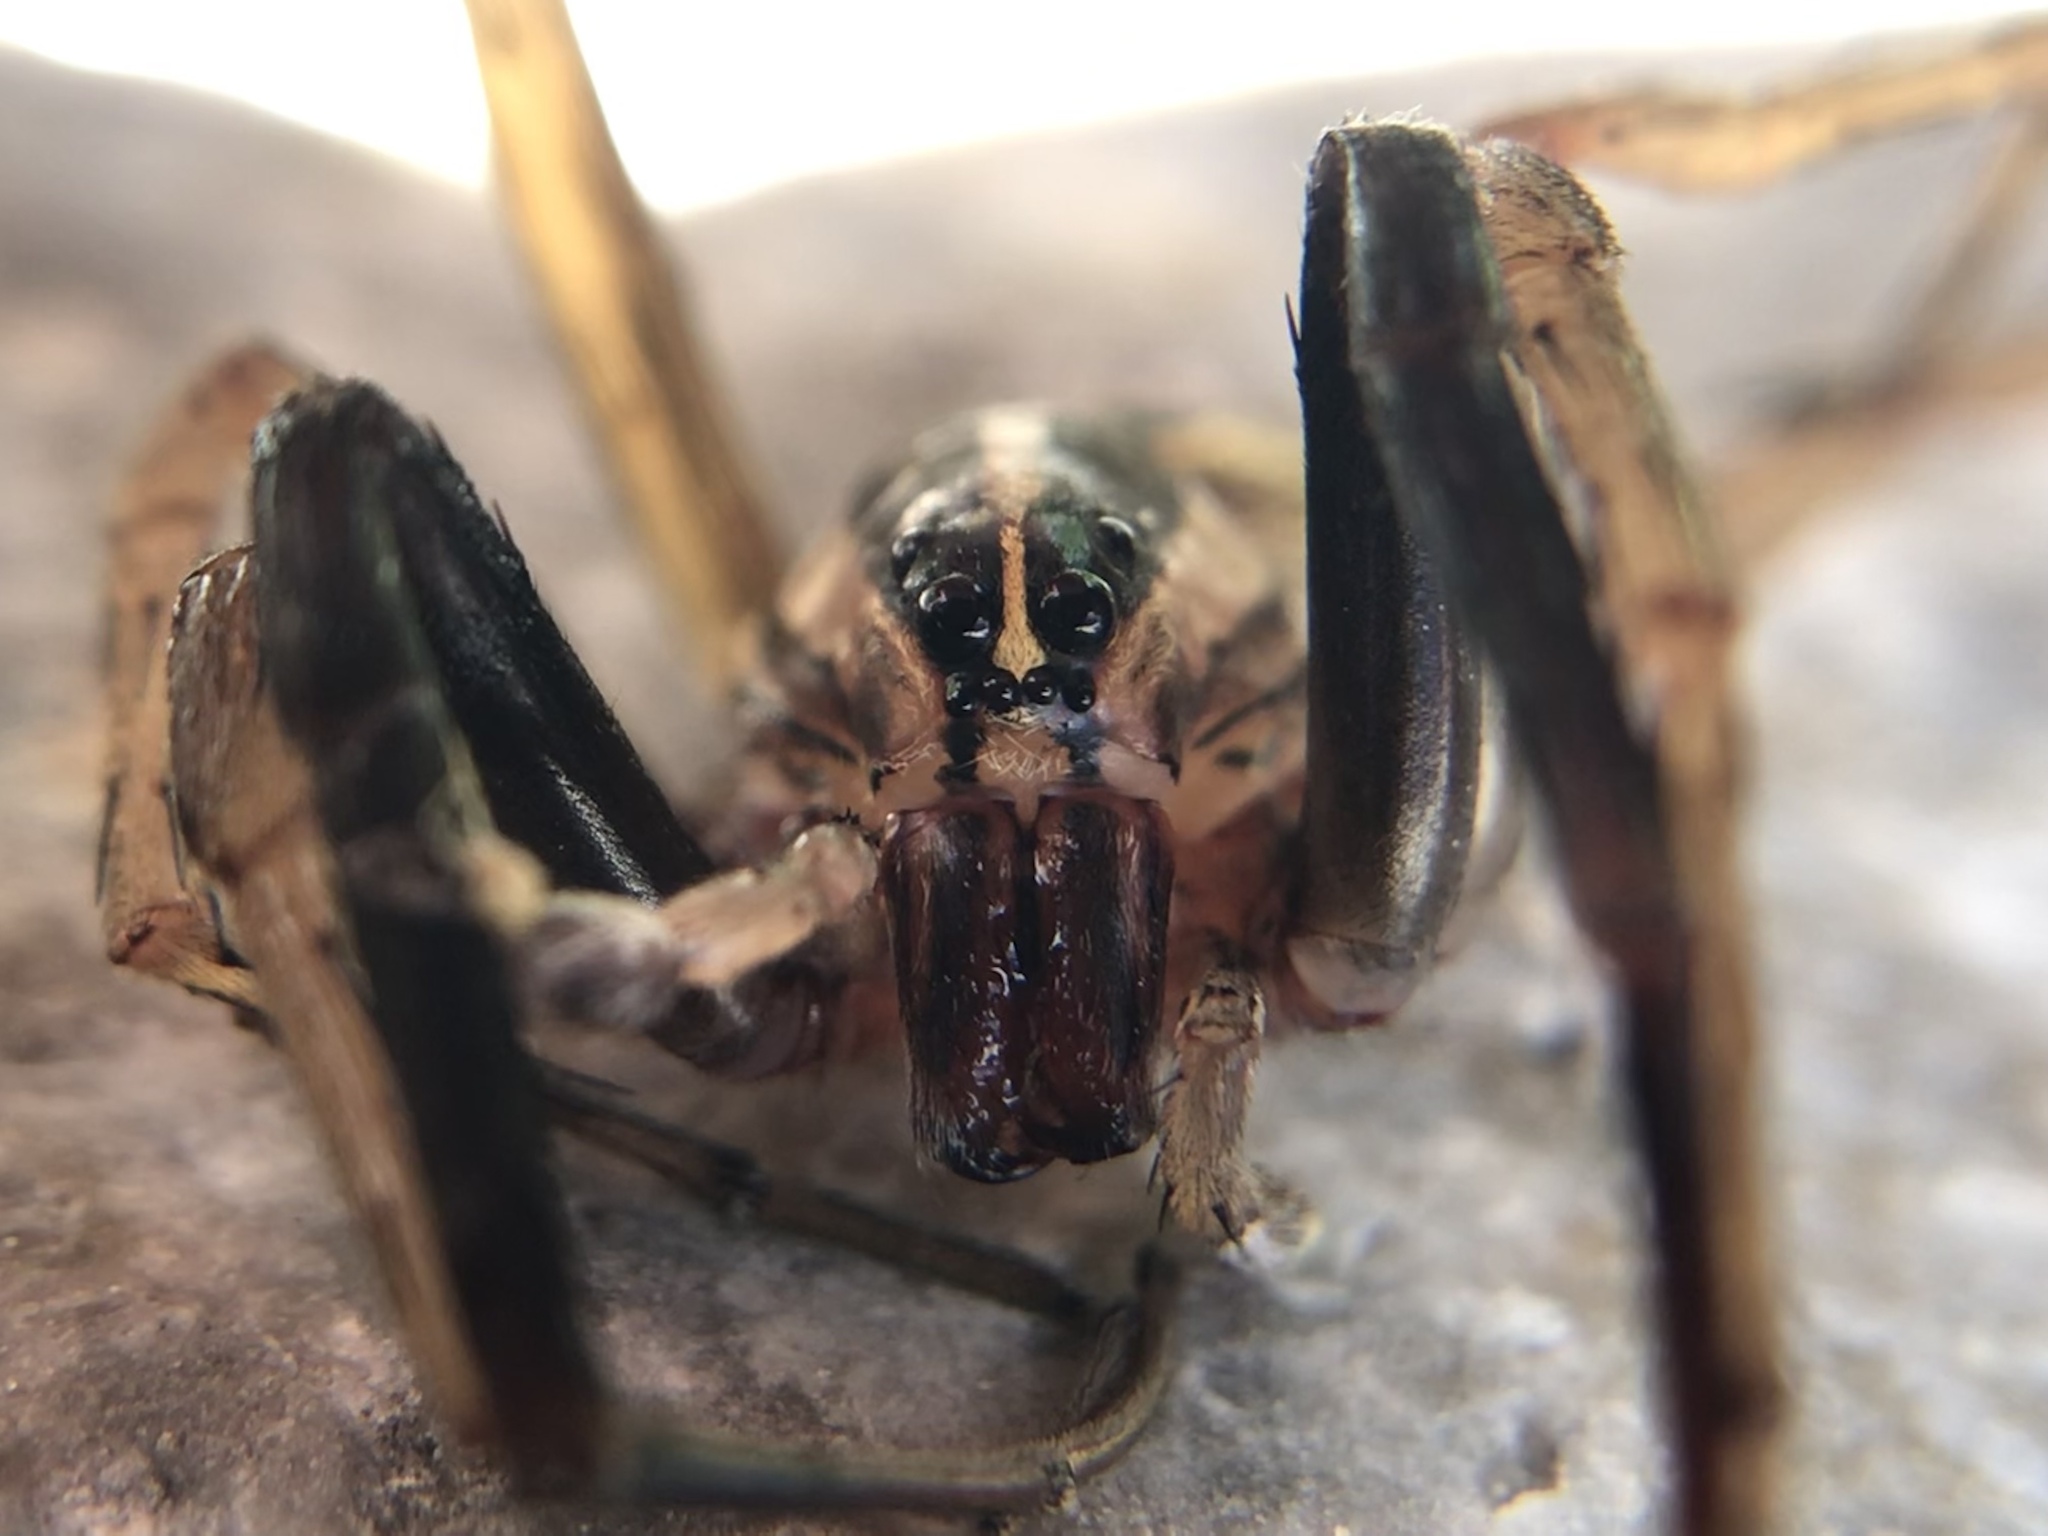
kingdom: Animalia
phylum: Arthropoda
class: Arachnida
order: Araneae
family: Lycosidae
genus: Rabidosa
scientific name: Rabidosa rabida
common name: Rabid wolf spider
